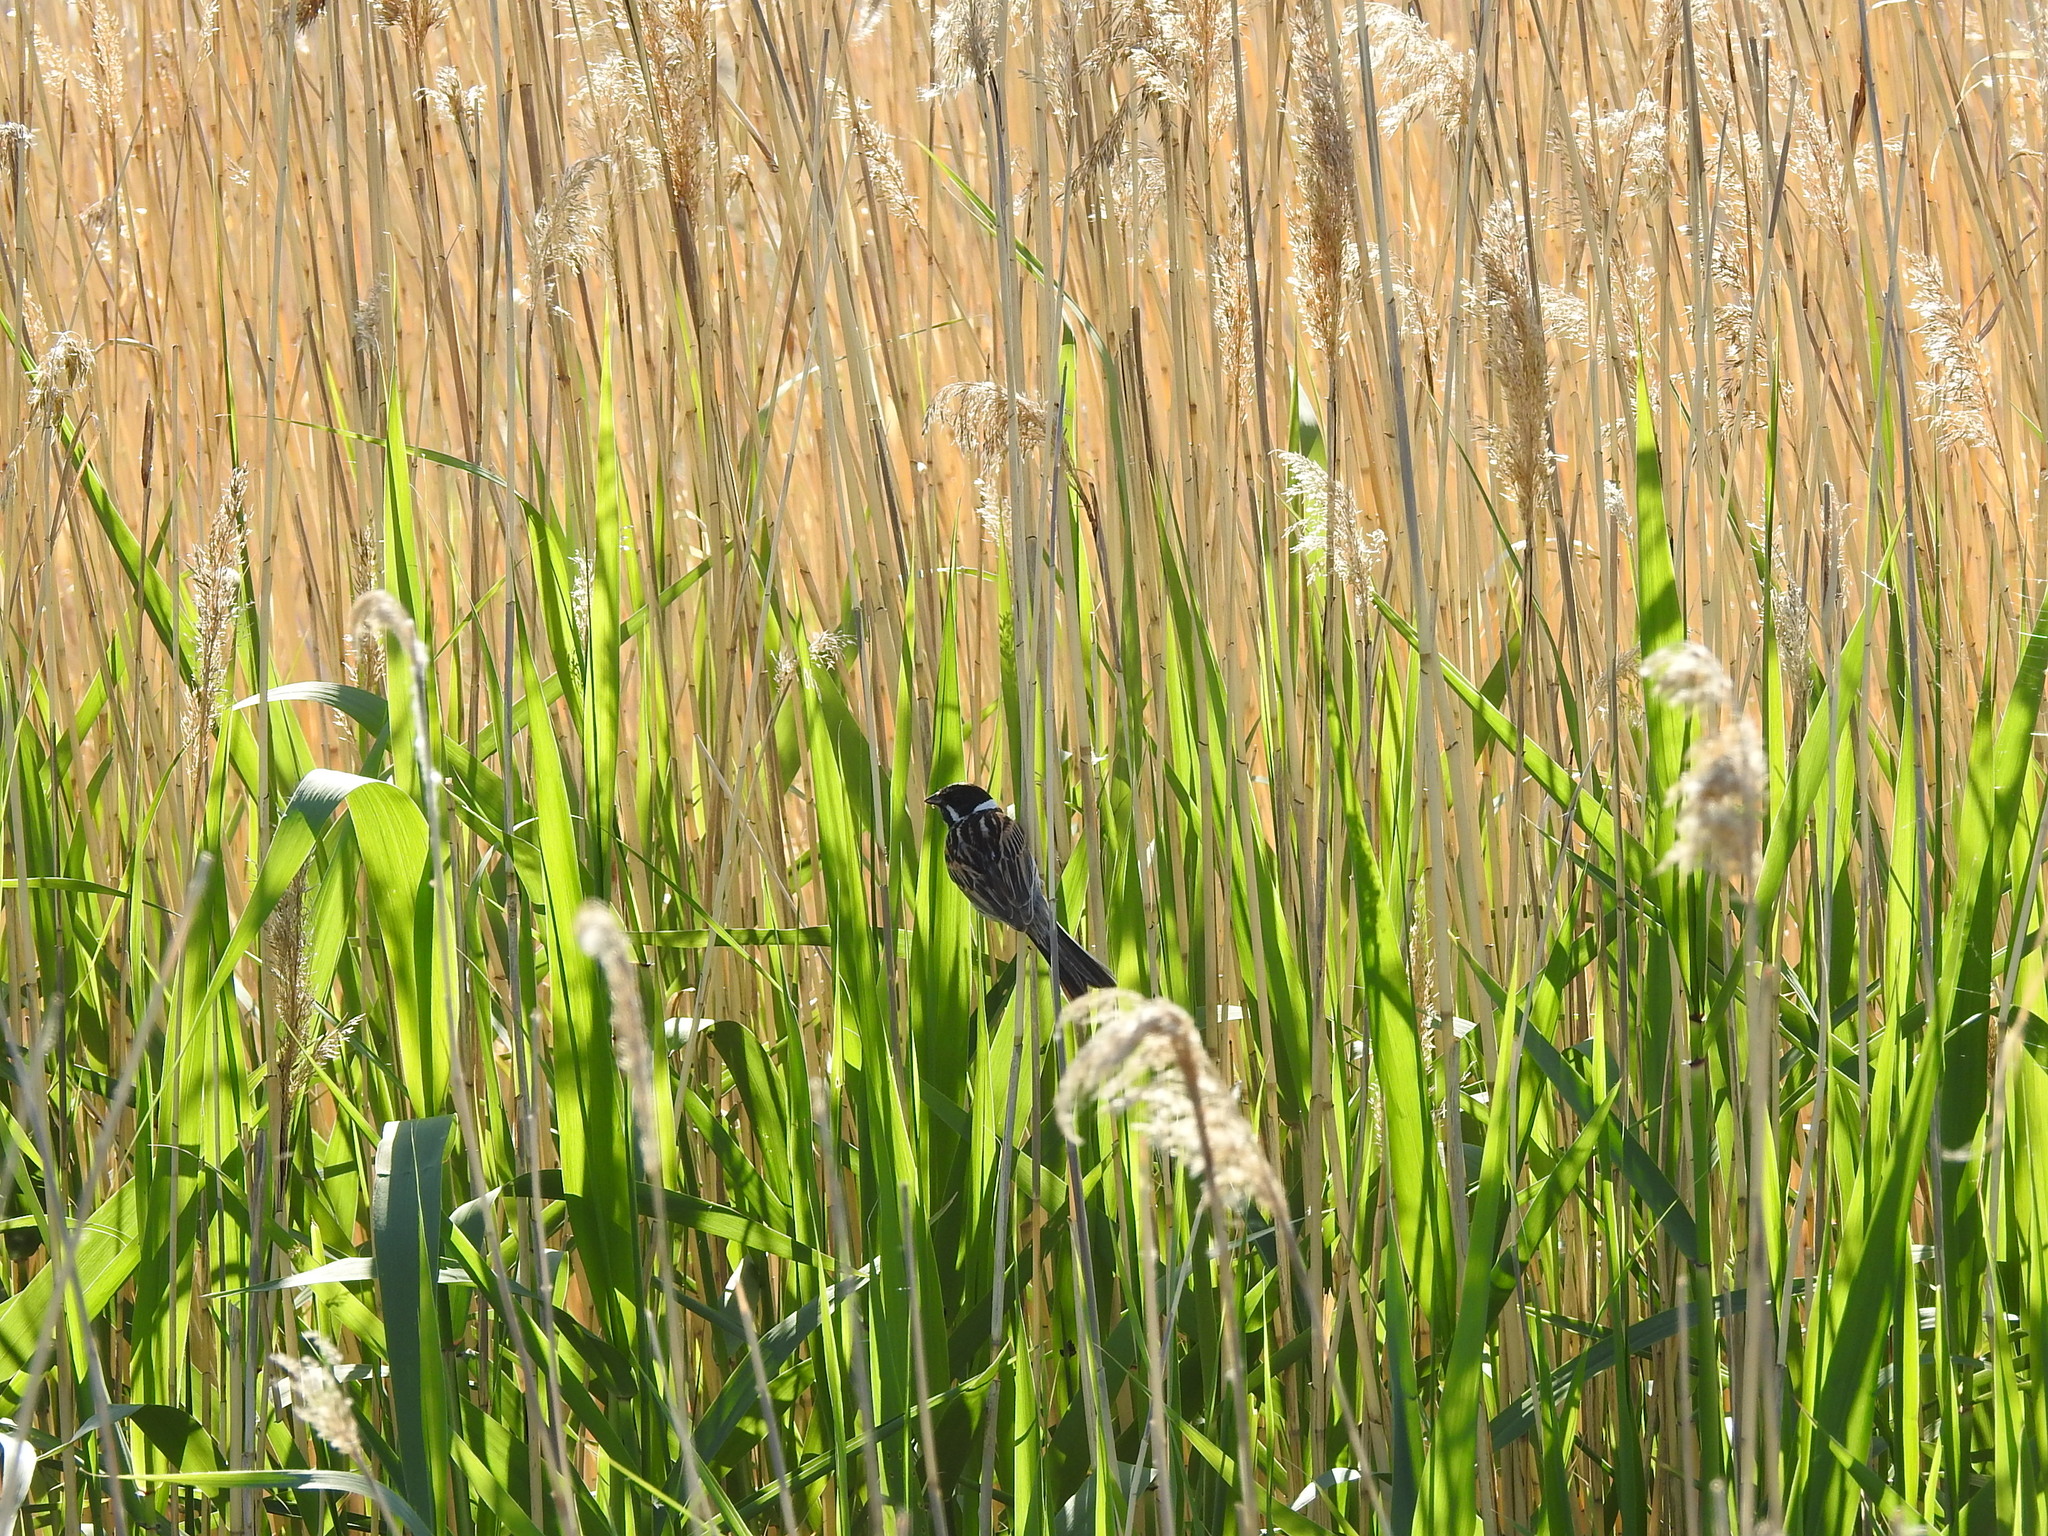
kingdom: Animalia
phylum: Chordata
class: Aves
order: Passeriformes
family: Emberizidae
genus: Emberiza
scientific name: Emberiza schoeniclus
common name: Reed bunting
